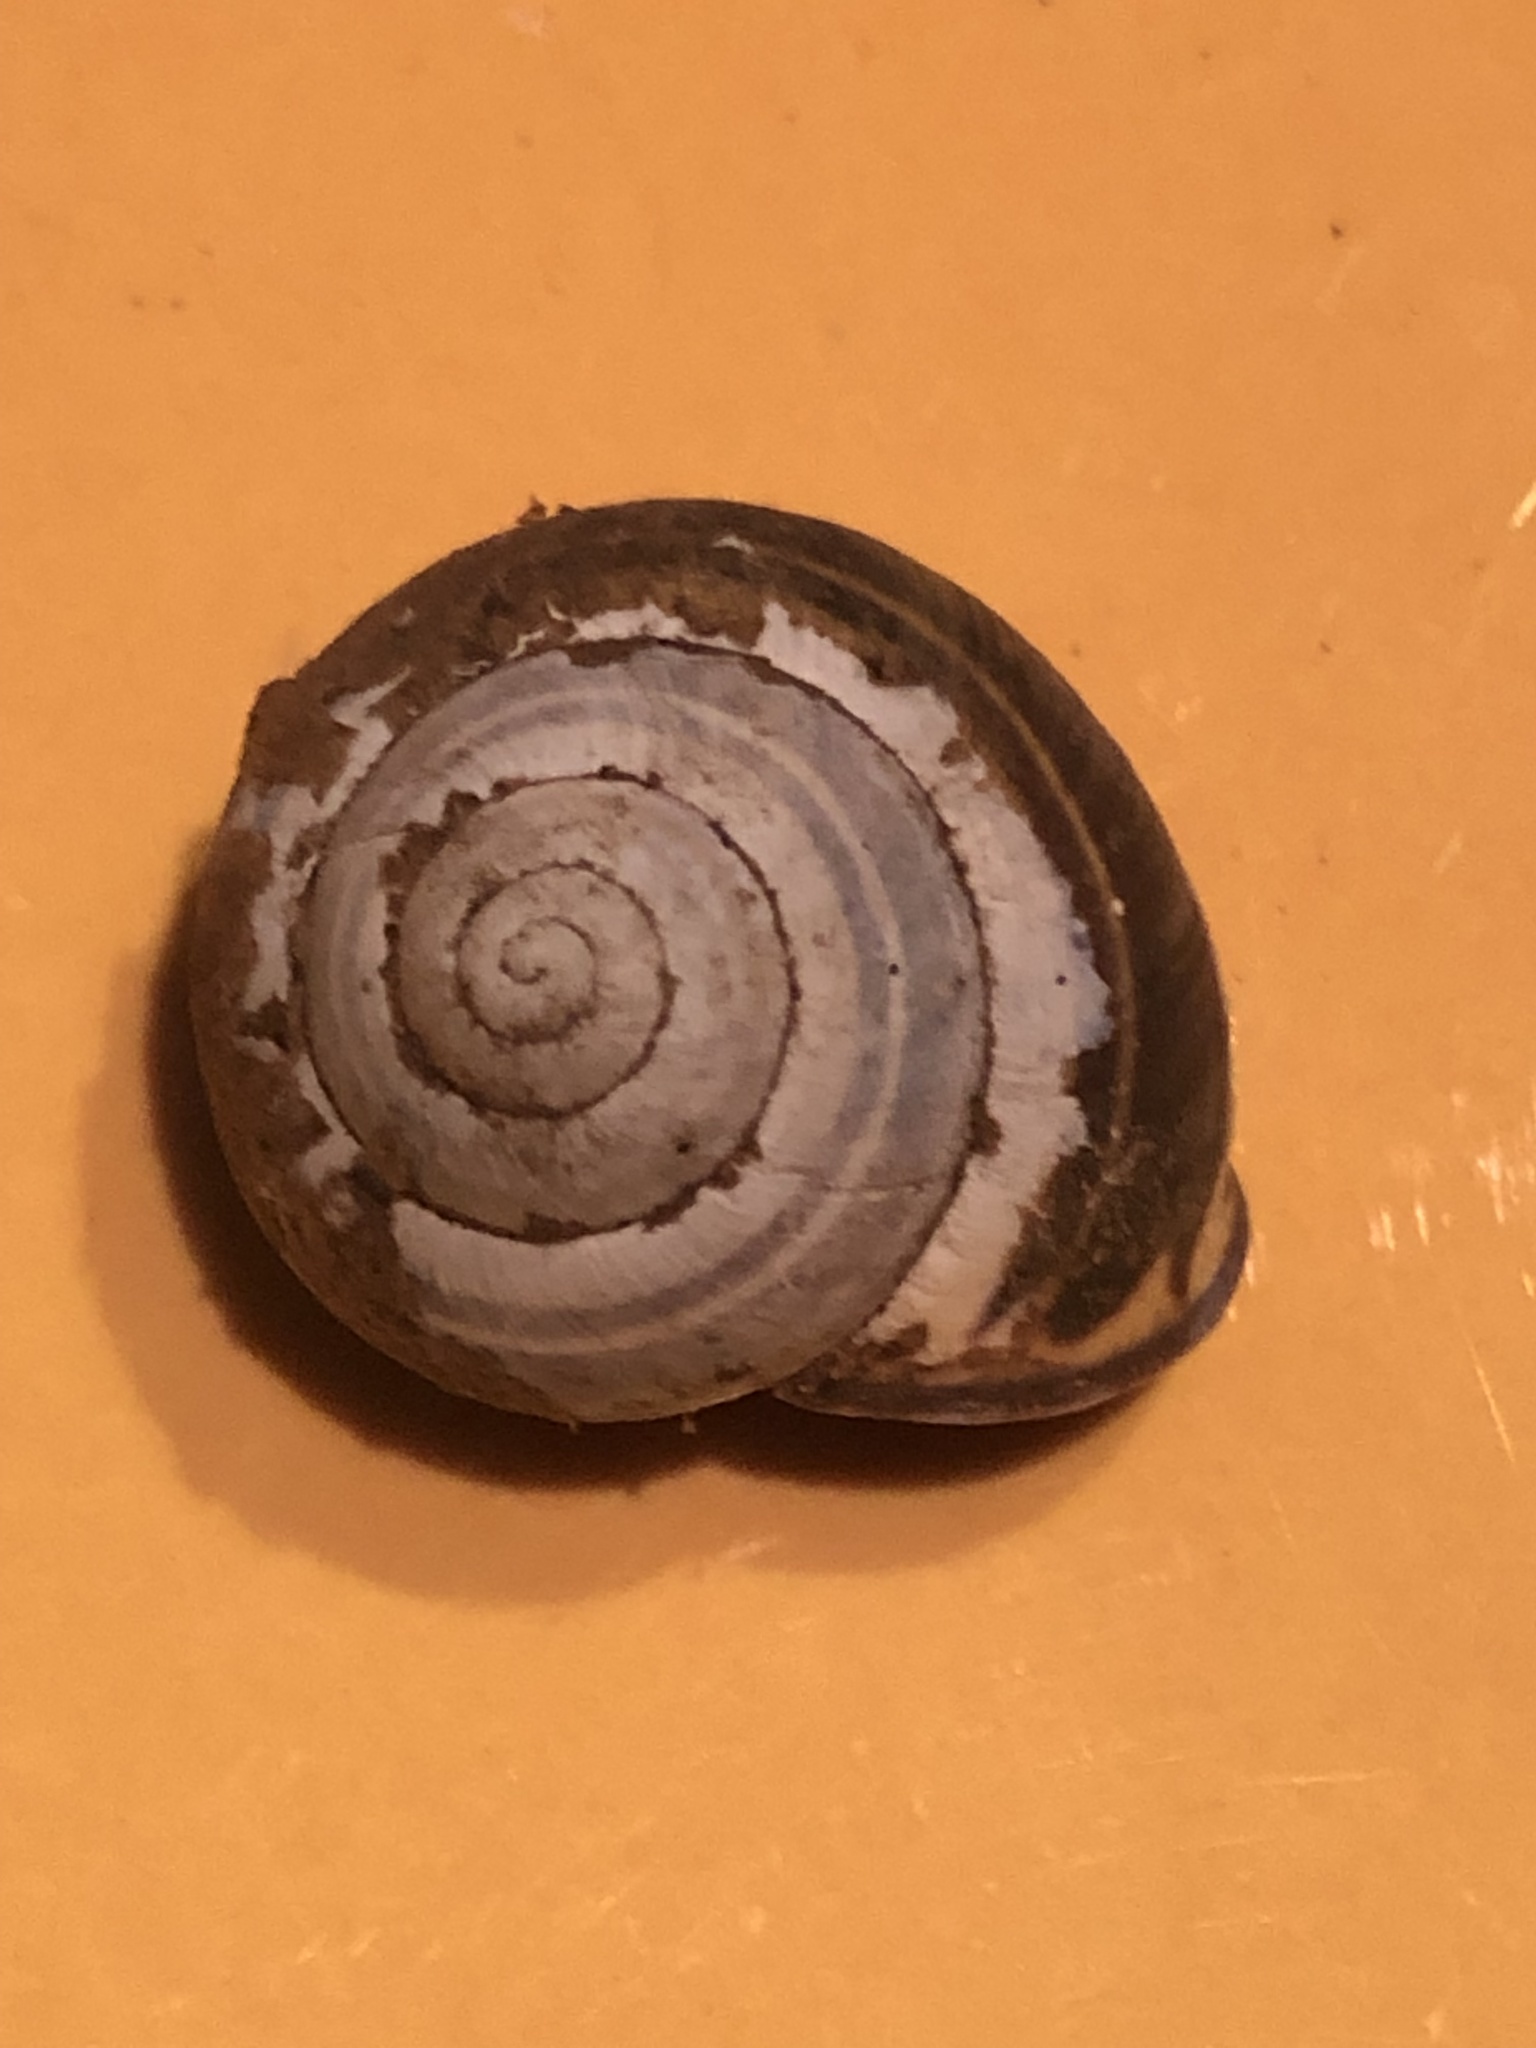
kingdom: Animalia
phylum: Mollusca
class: Gastropoda
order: Stylommatophora
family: Helicidae
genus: Cepaea
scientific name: Cepaea nemoralis
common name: Grovesnail
